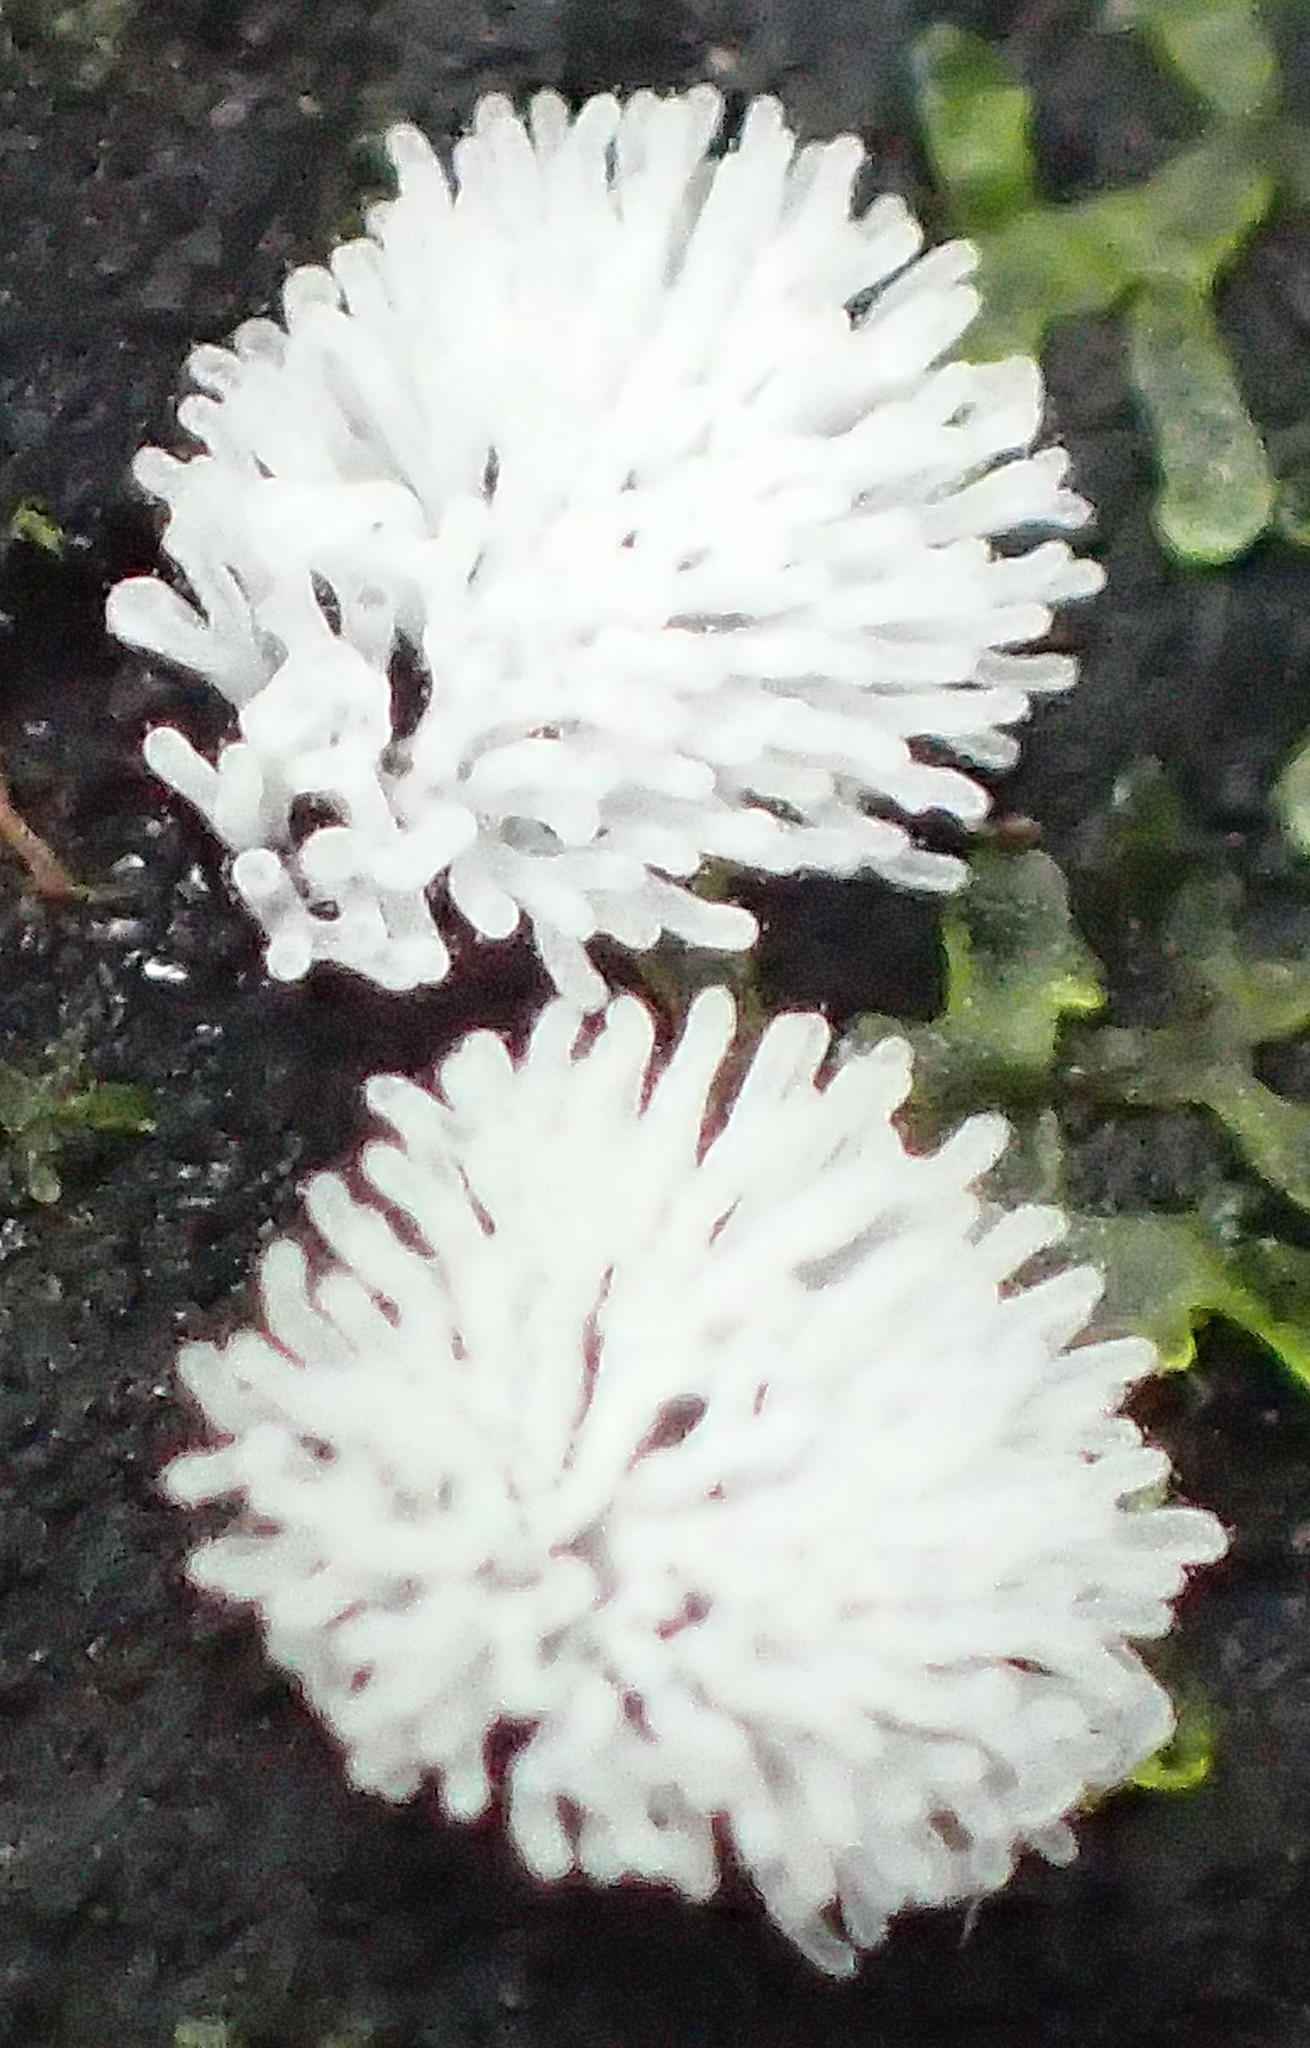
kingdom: Protozoa
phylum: Mycetozoa
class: Protosteliomycetes
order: Ceratiomyxales
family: Ceratiomyxaceae
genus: Ceratiomyxa
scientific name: Ceratiomyxa fruticulosa
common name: Honeycomb coral slime mold
